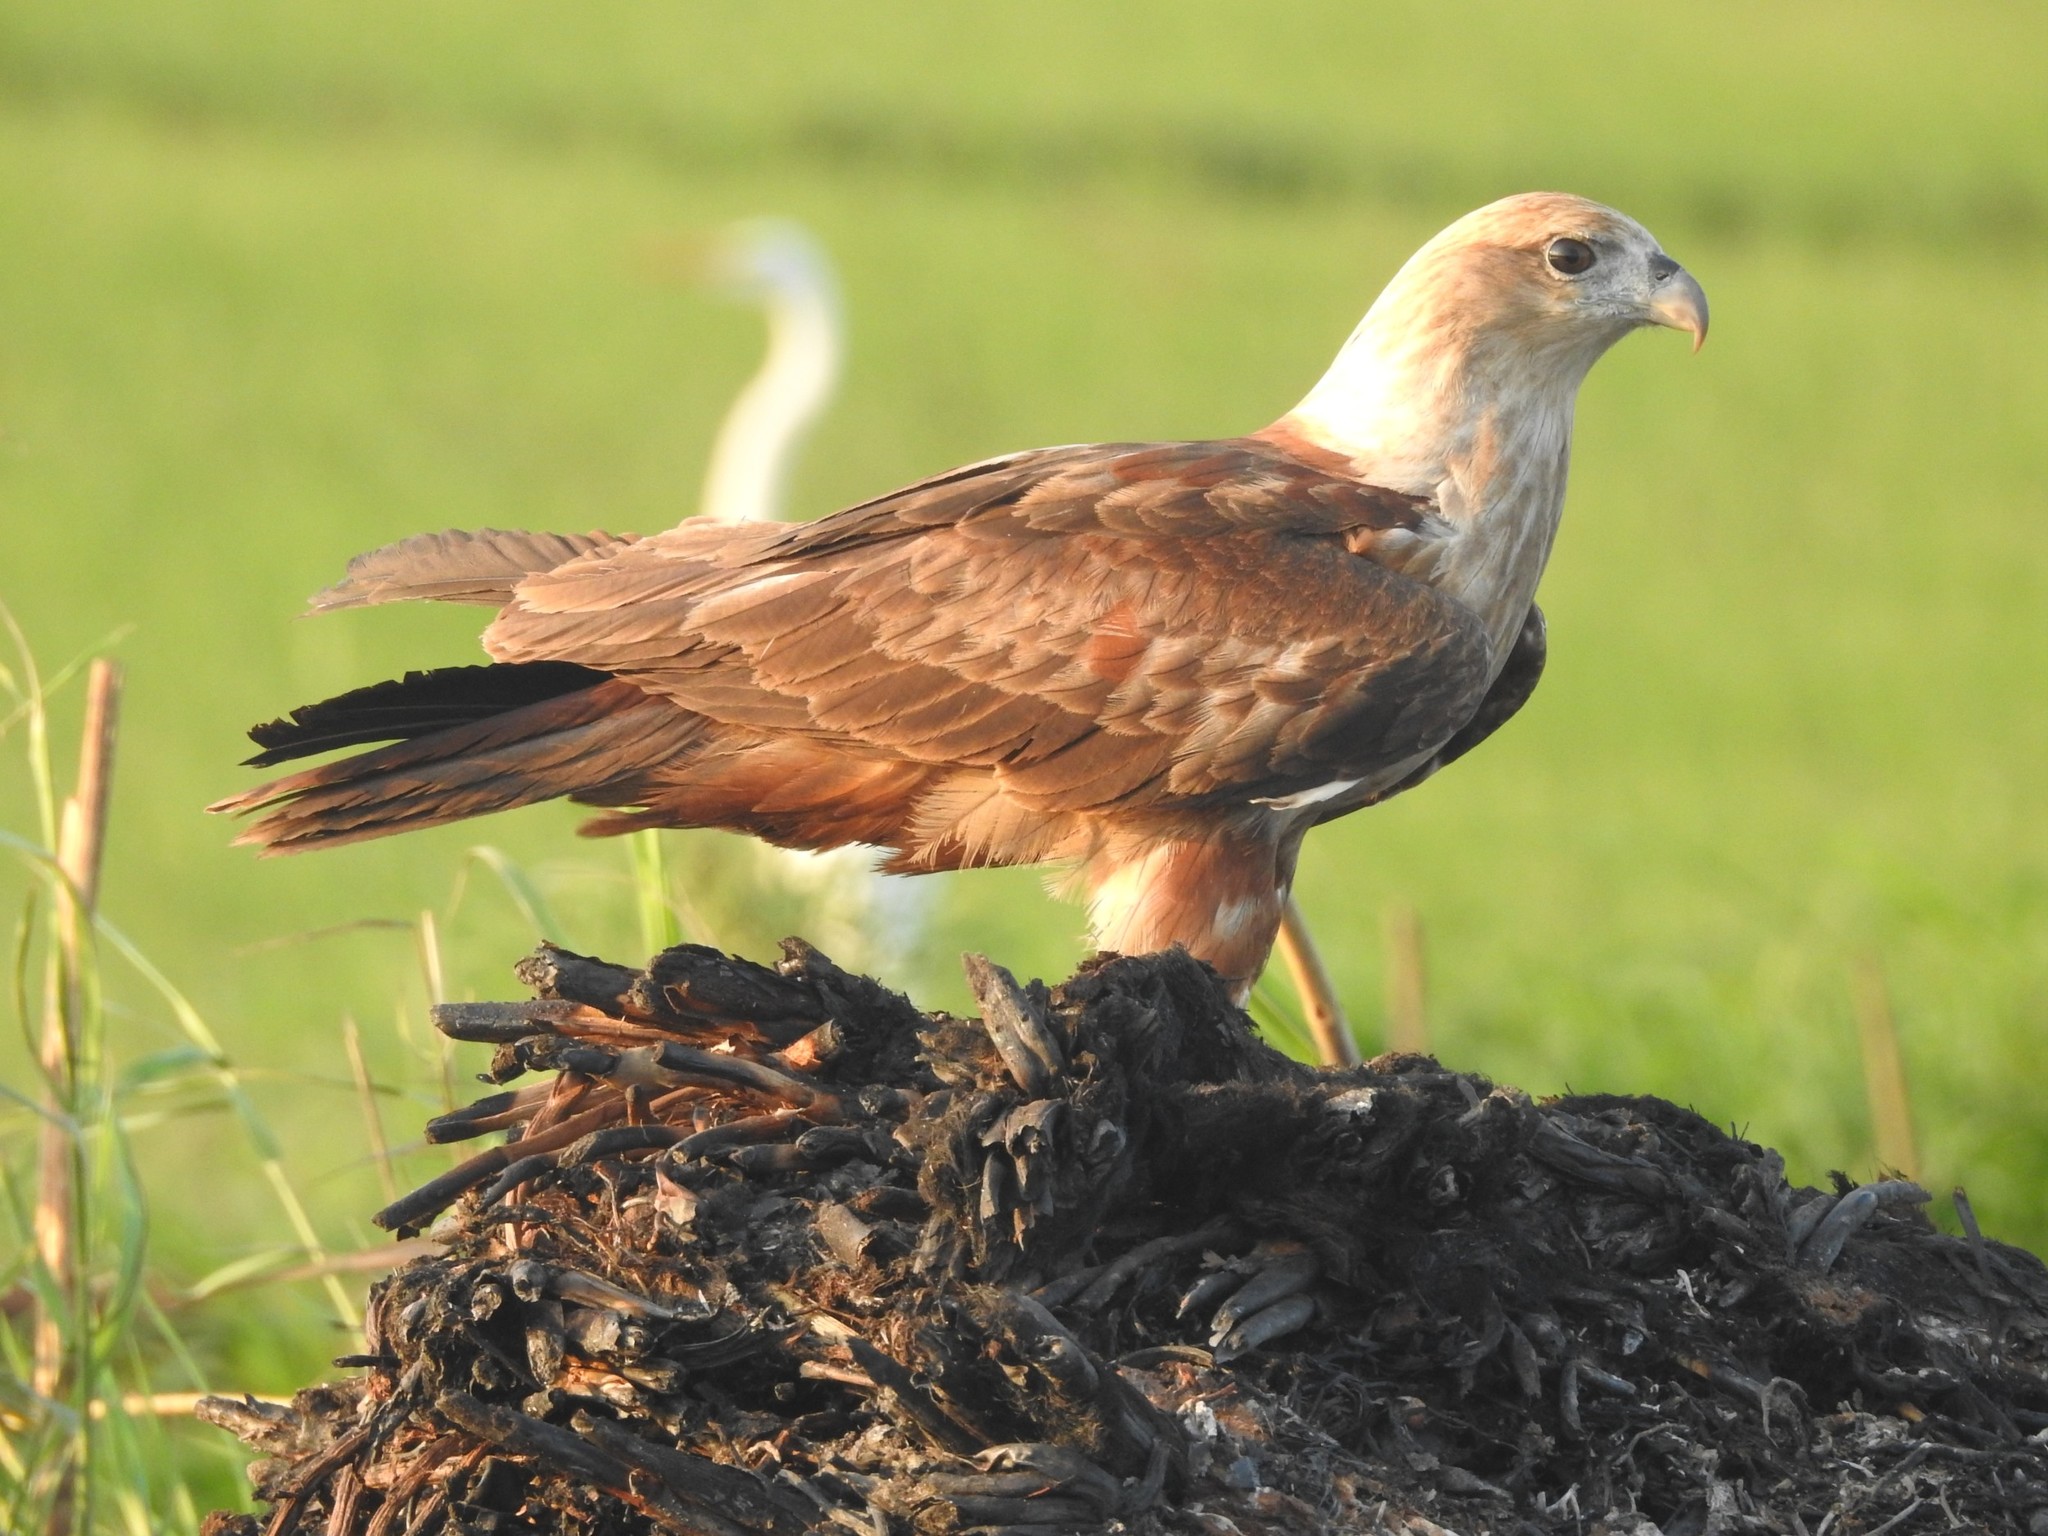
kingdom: Animalia
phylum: Chordata
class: Aves
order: Accipitriformes
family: Accipitridae
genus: Haliastur
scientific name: Haliastur indus
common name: Brahminy kite
